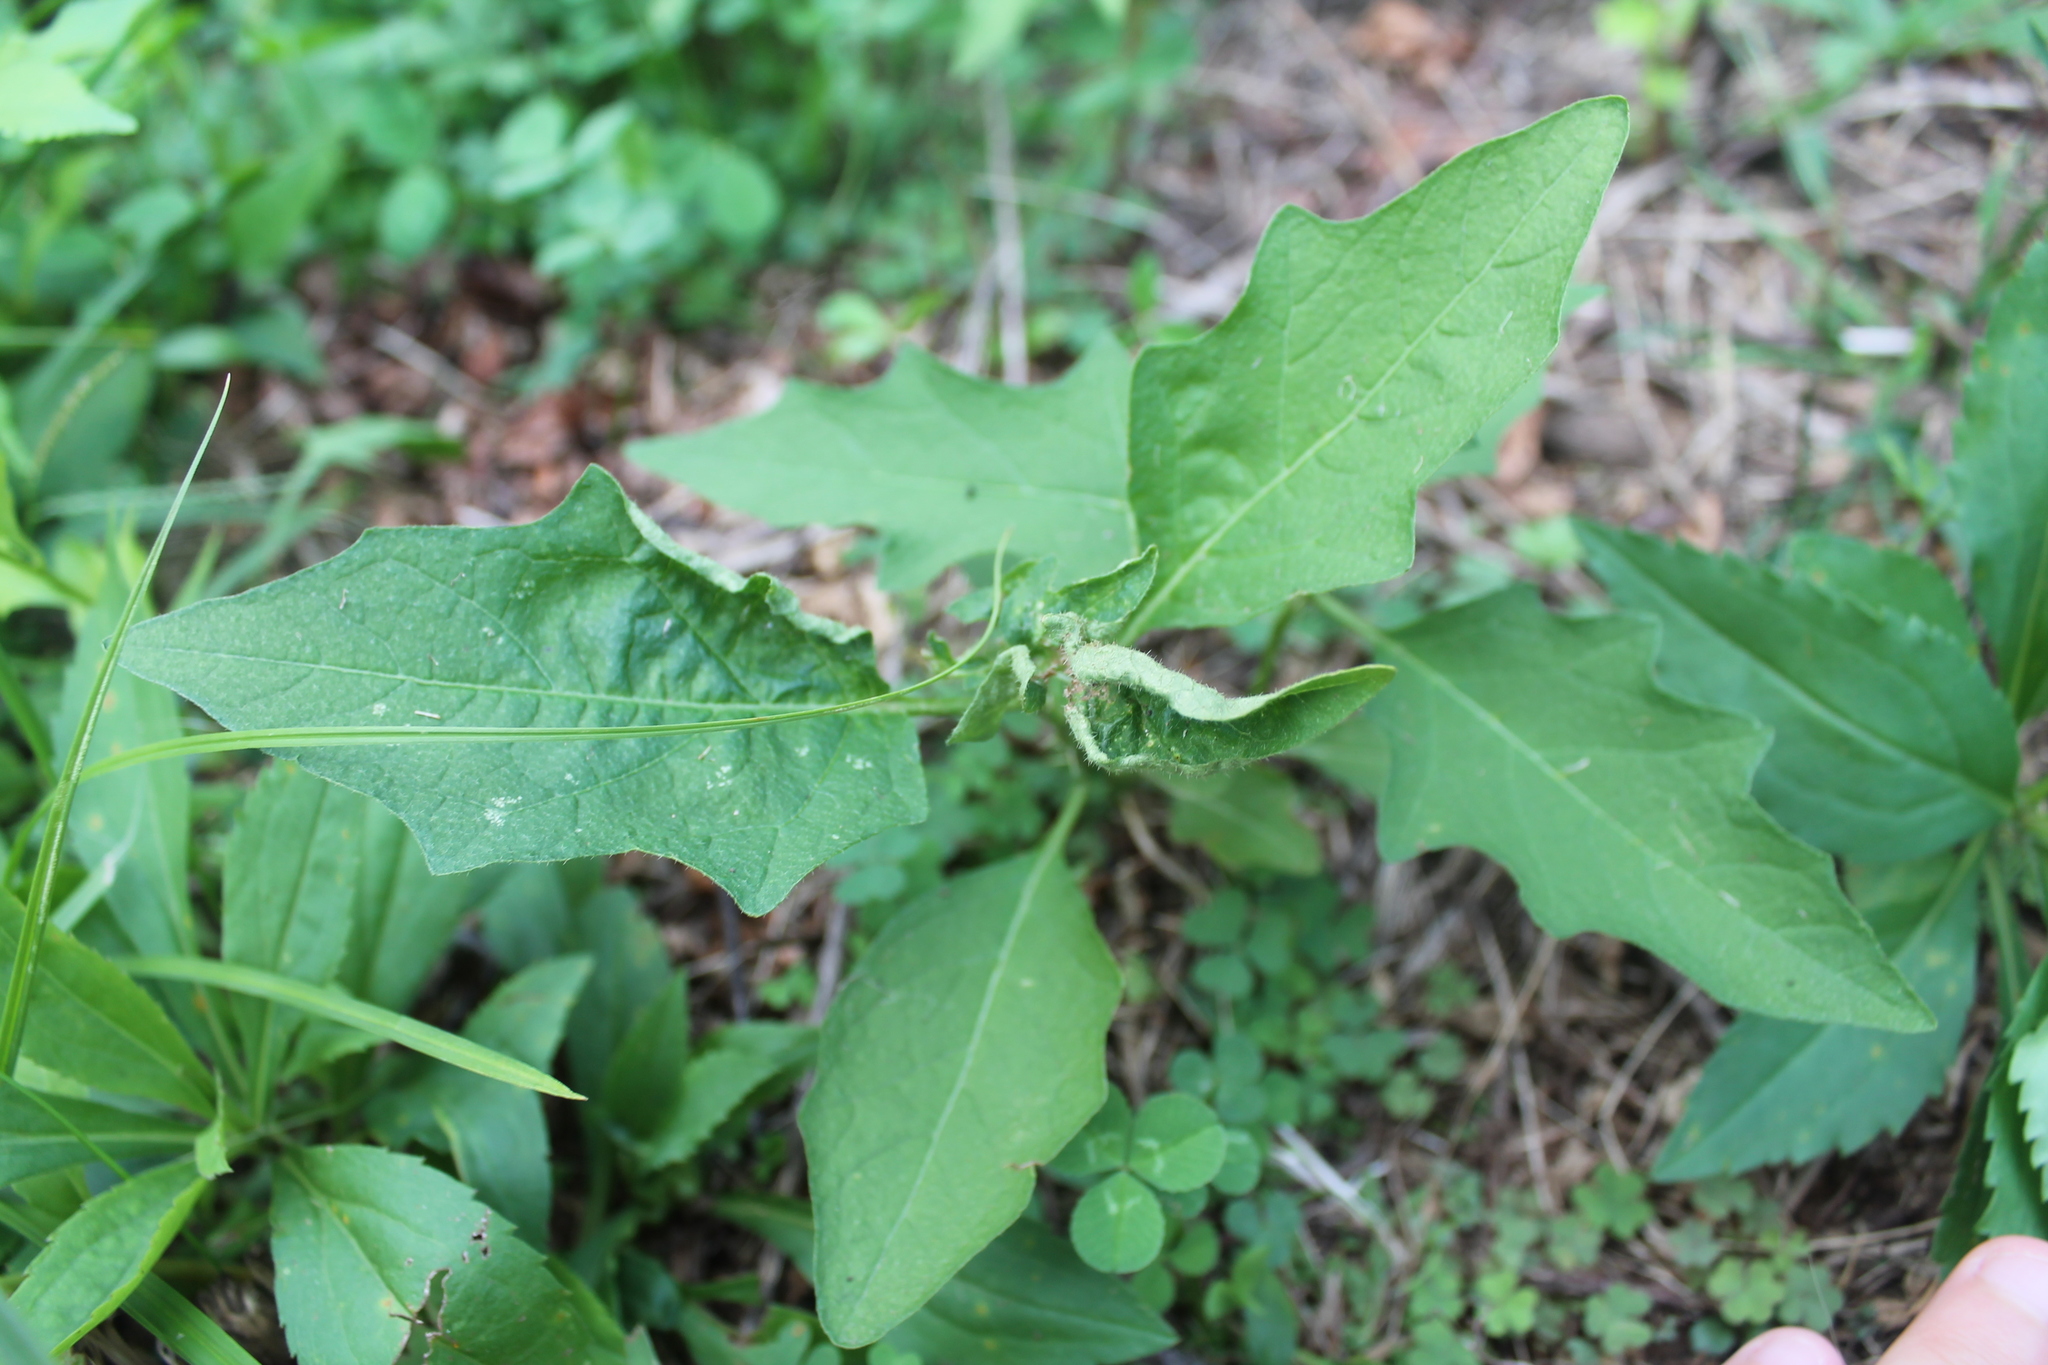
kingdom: Plantae
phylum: Tracheophyta
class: Magnoliopsida
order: Solanales
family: Solanaceae
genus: Solanum
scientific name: Solanum carolinense
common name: Horse-nettle
